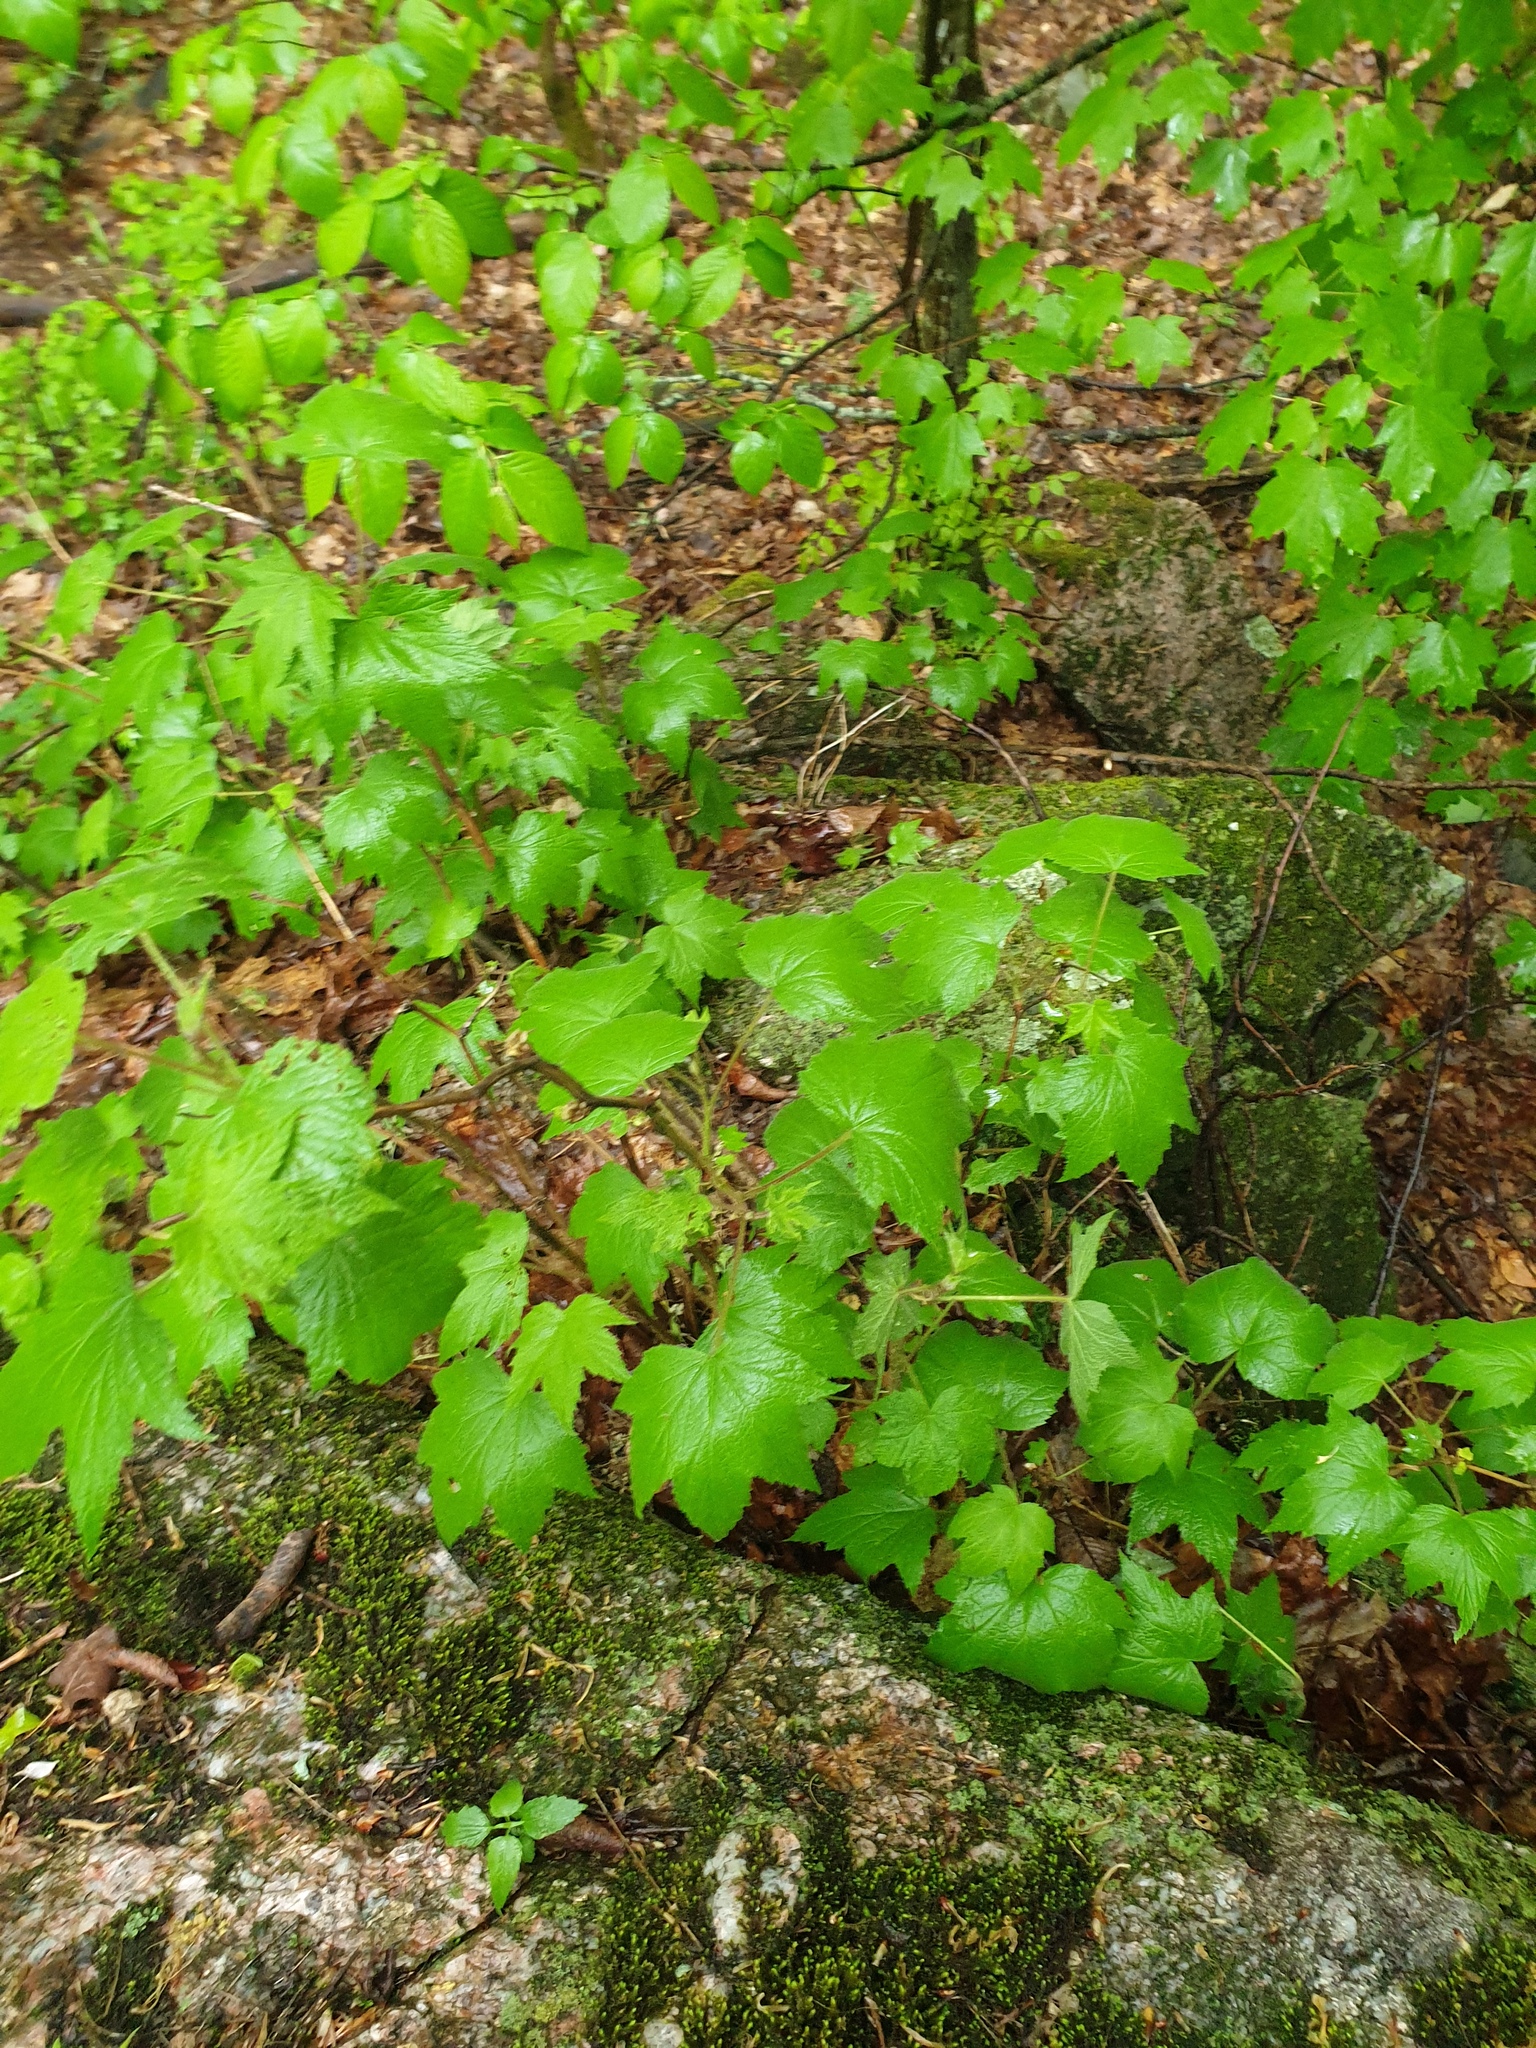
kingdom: Plantae
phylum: Tracheophyta
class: Magnoliopsida
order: Rosales
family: Rosaceae
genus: Rubus
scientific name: Rubus odoratus
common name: Purple-flowered raspberry
